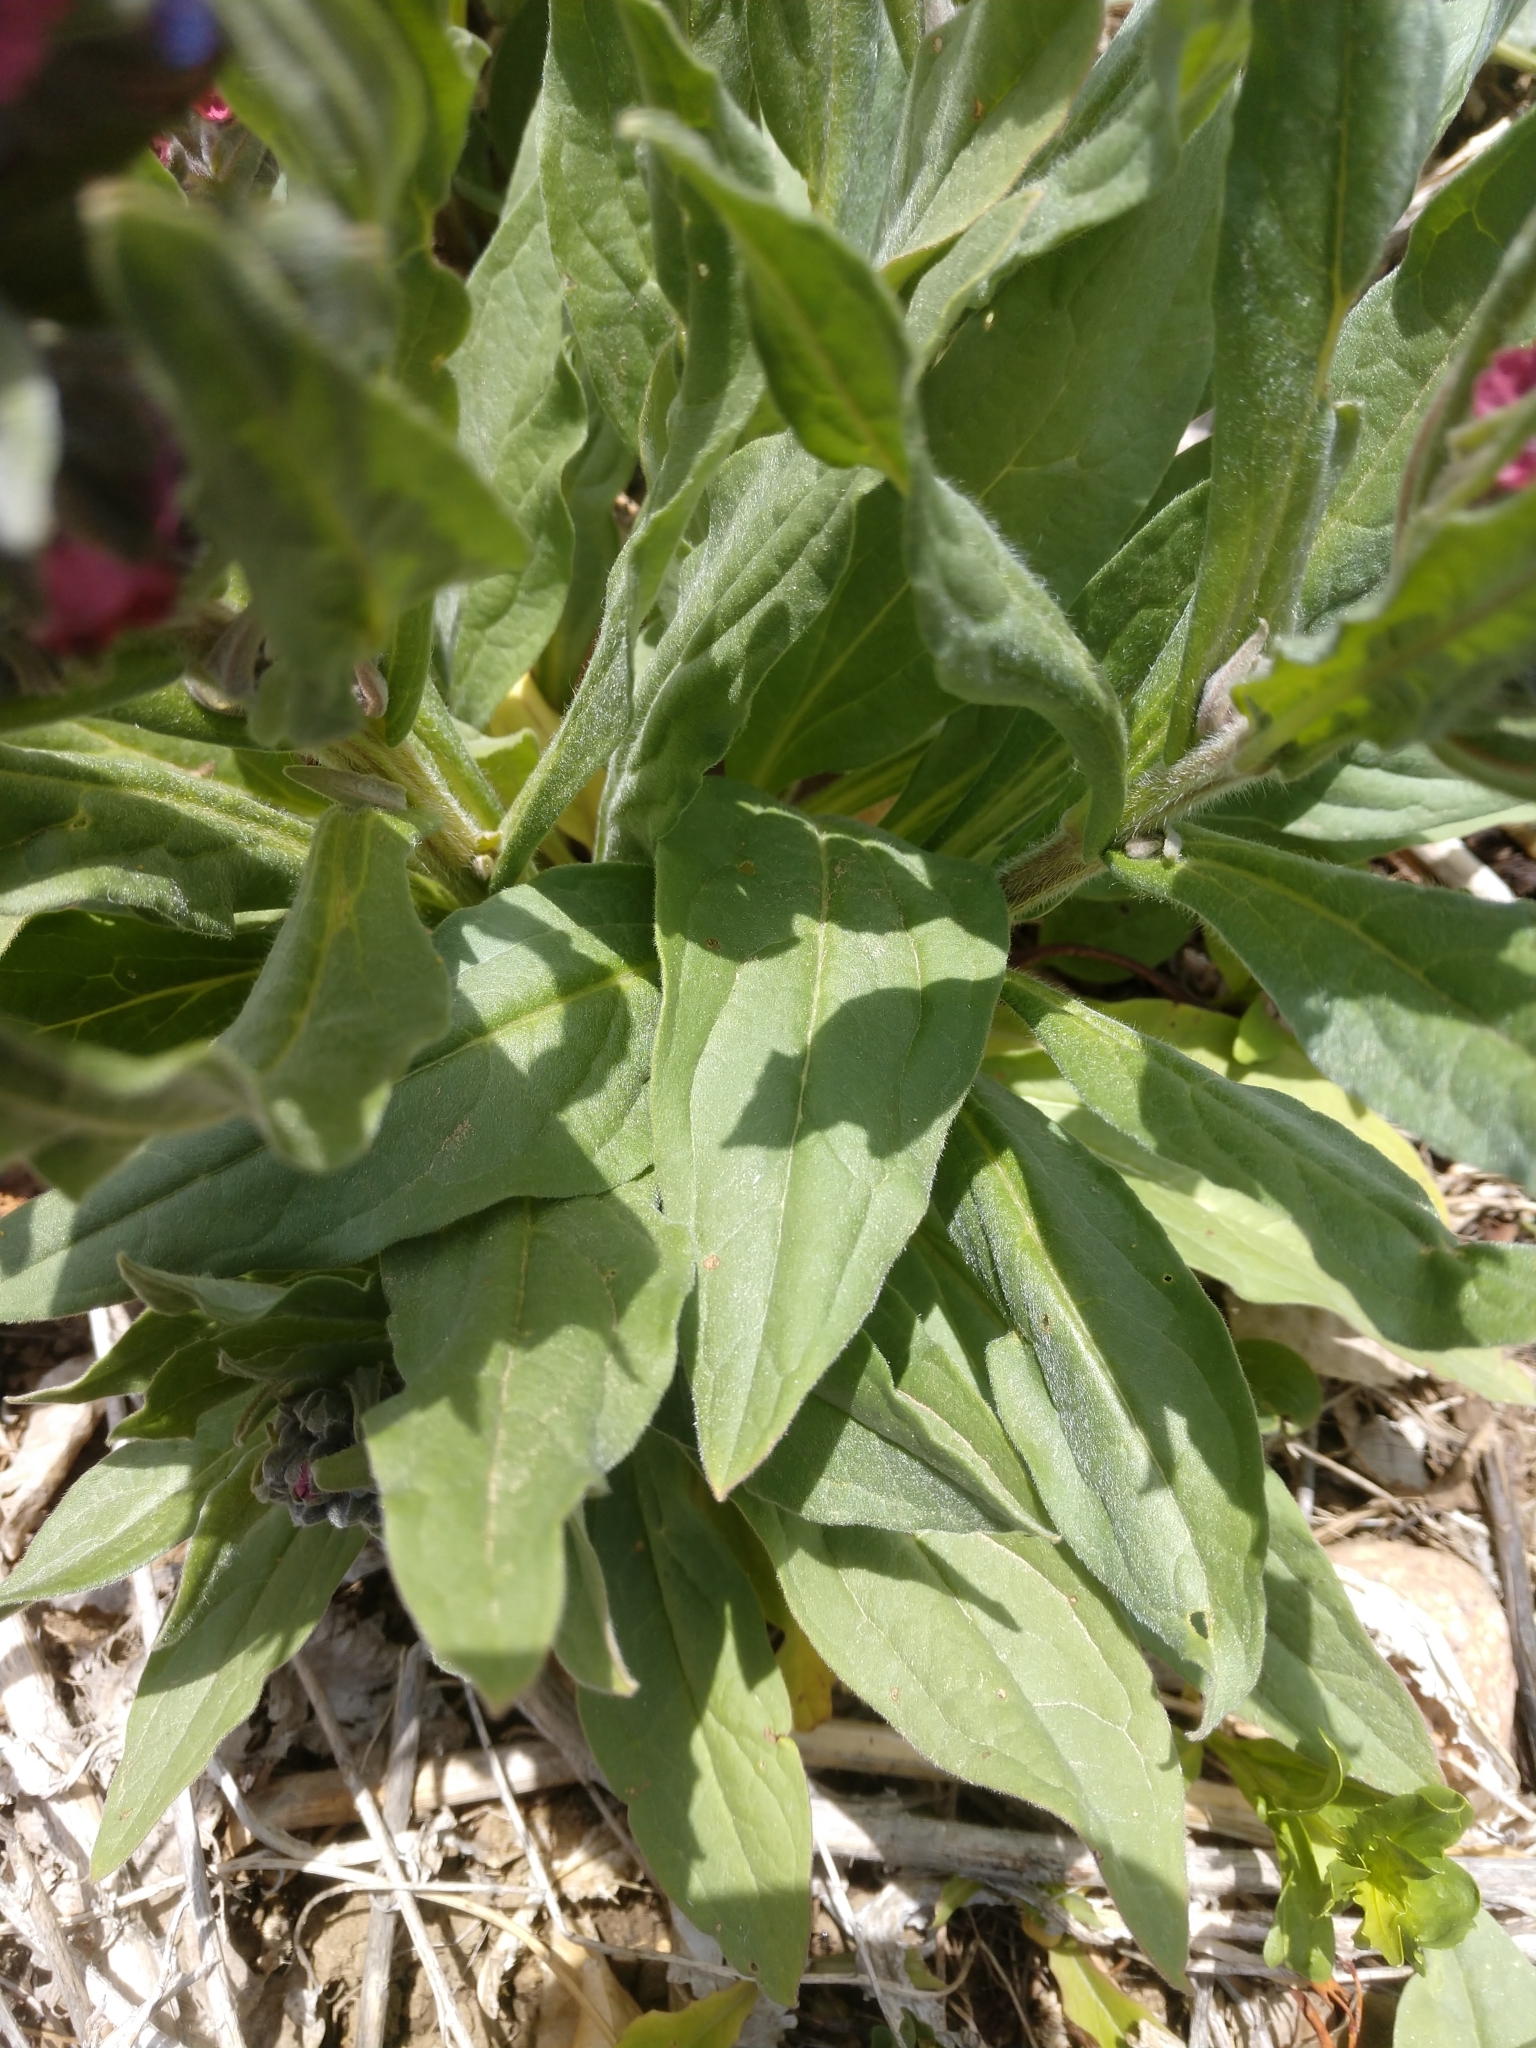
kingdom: Plantae
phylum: Tracheophyta
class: Magnoliopsida
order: Boraginales
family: Boraginaceae
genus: Cynoglossum
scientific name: Cynoglossum officinale
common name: Hound's-tongue
